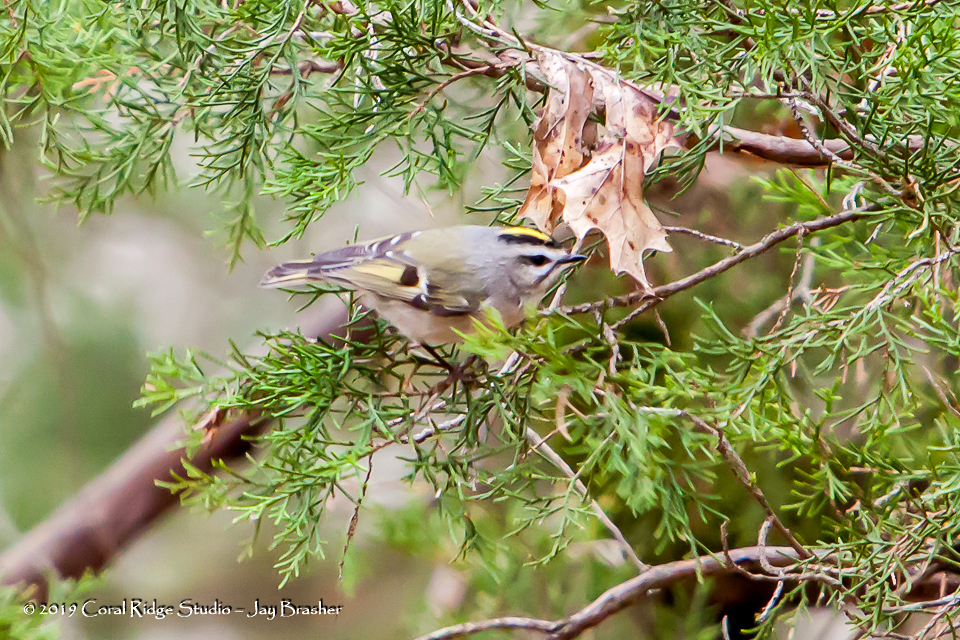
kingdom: Animalia
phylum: Chordata
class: Aves
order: Passeriformes
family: Regulidae
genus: Regulus
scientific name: Regulus satrapa
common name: Golden-crowned kinglet
